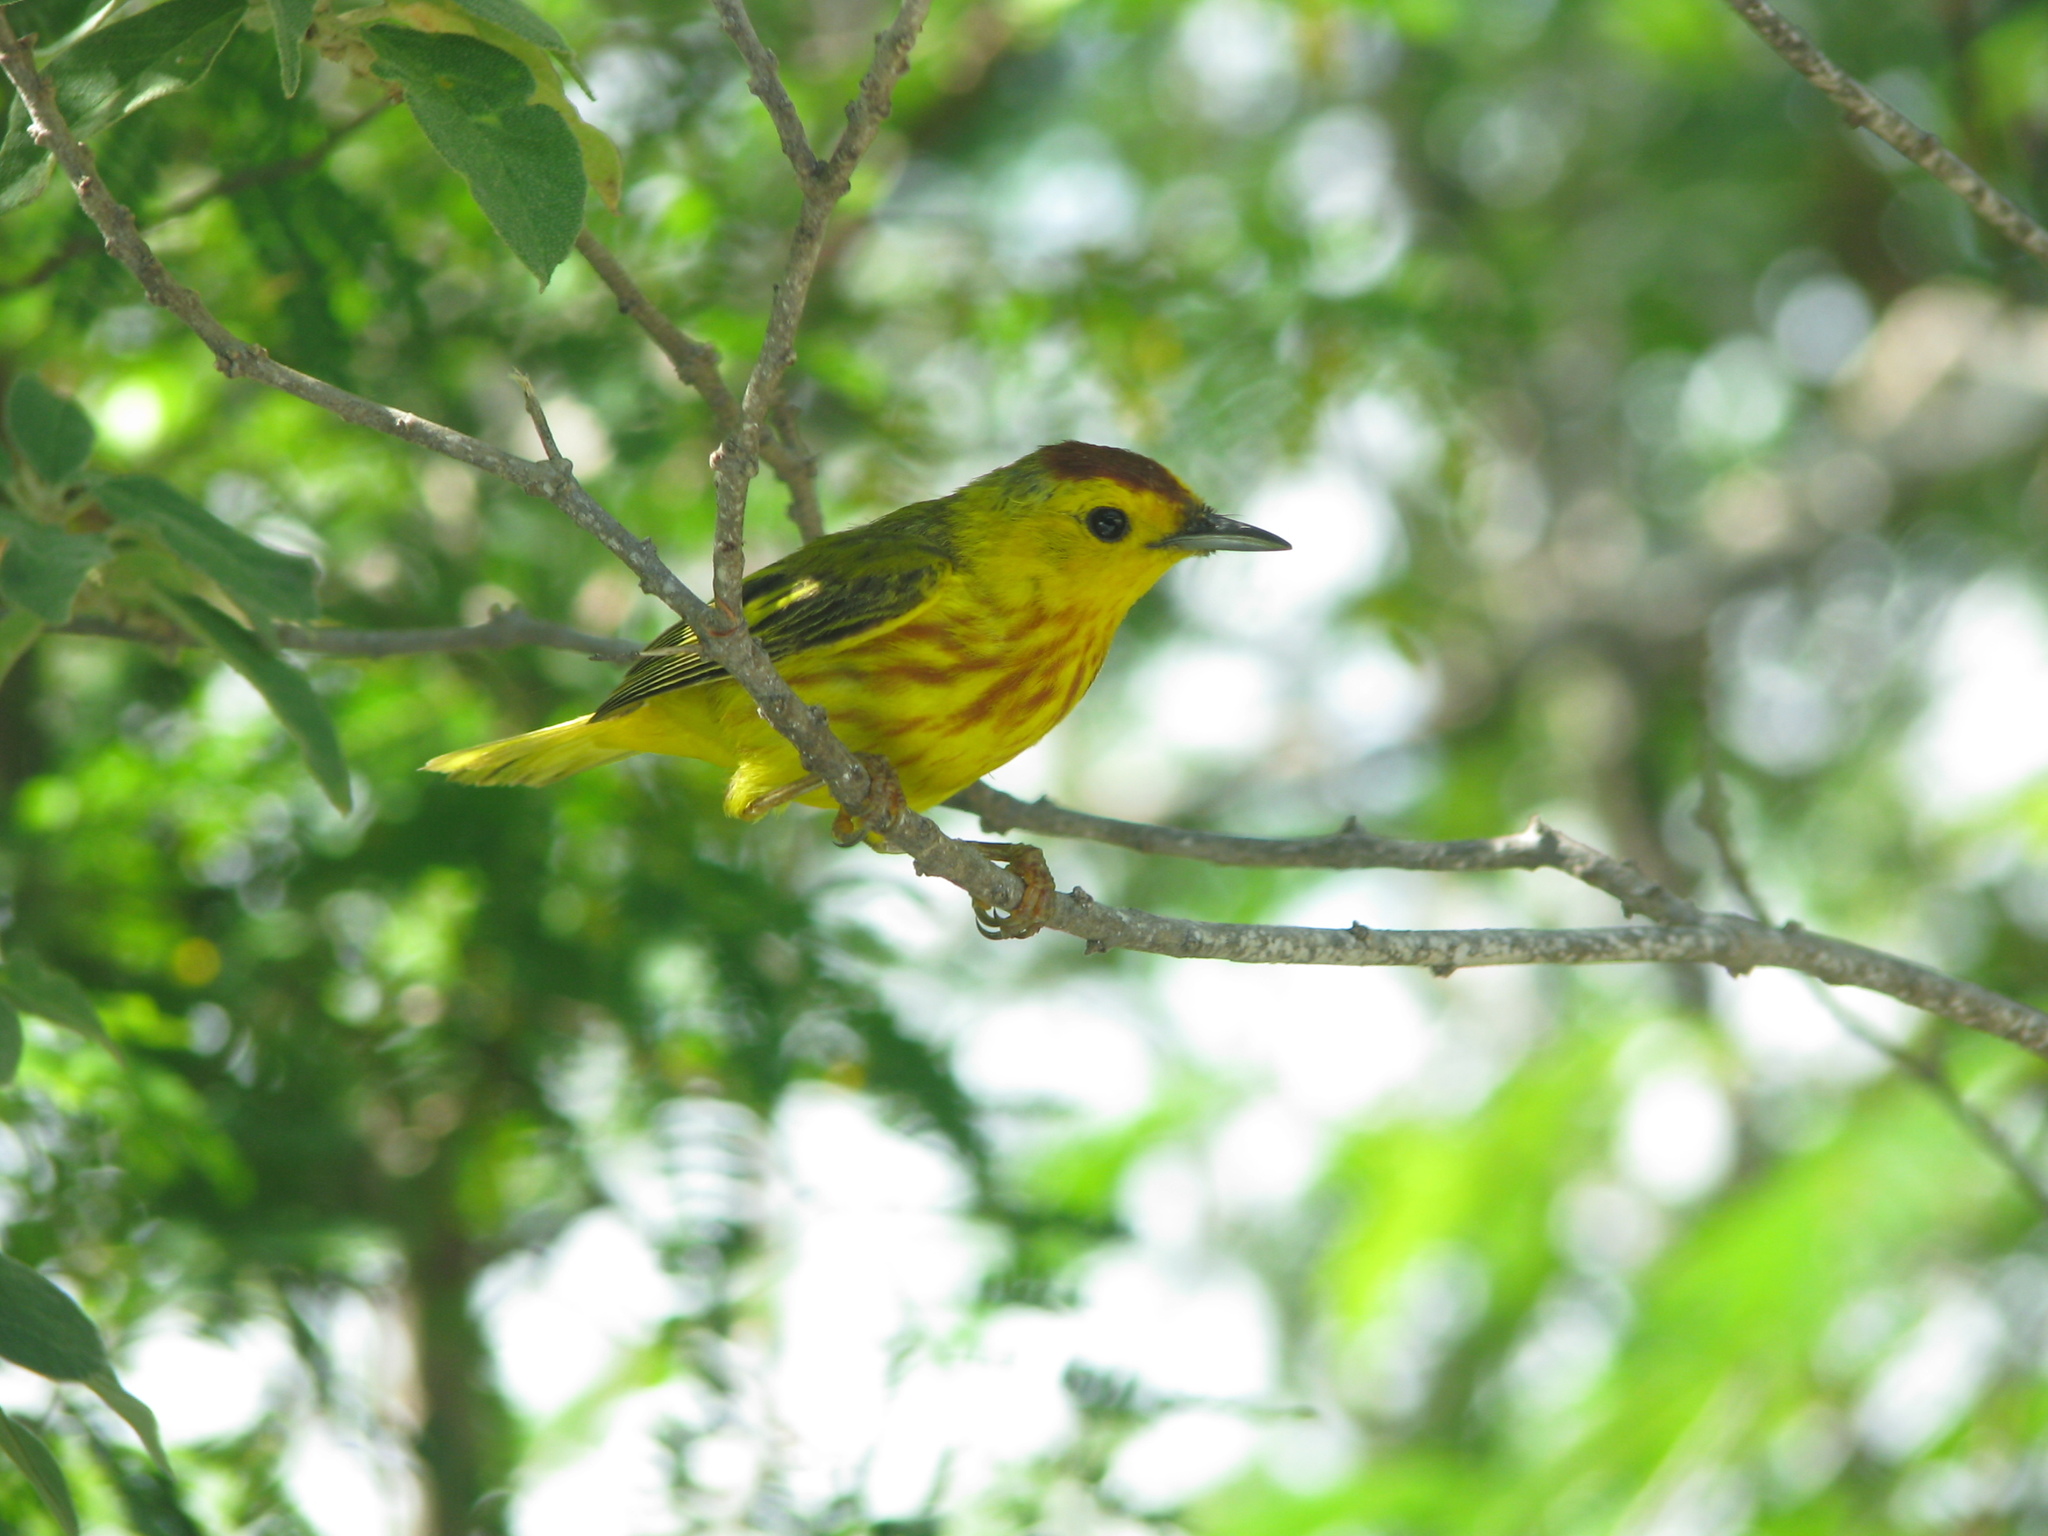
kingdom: Animalia
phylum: Chordata
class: Aves
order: Passeriformes
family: Parulidae
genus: Setophaga
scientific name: Setophaga petechia
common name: Yellow warbler
